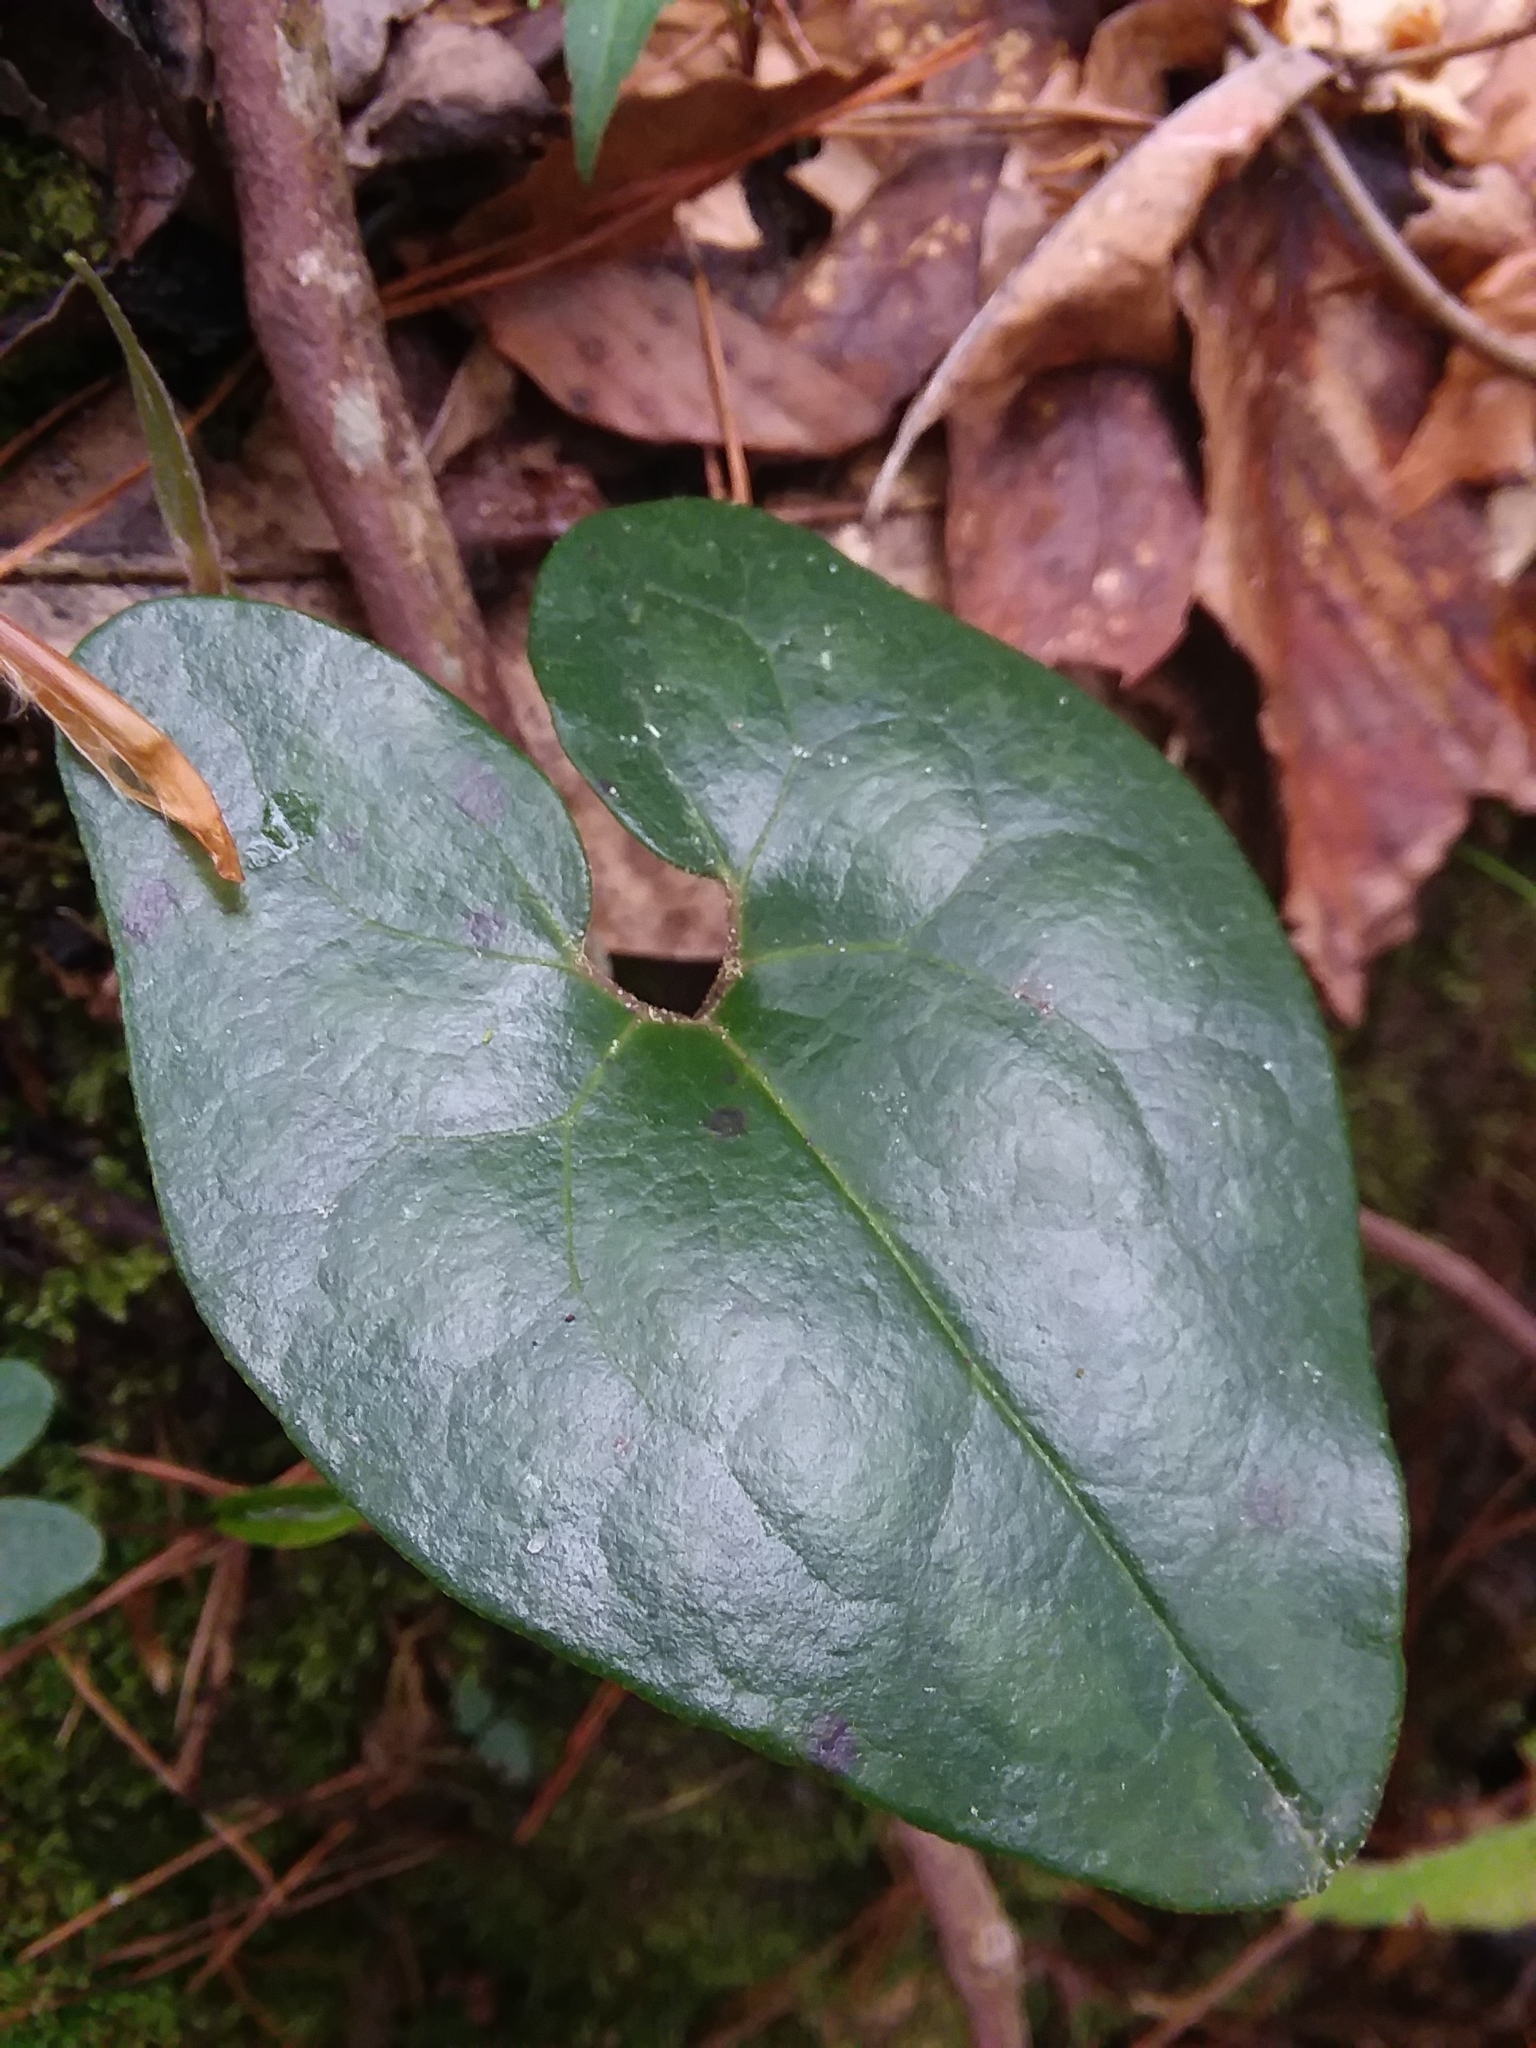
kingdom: Plantae
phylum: Tracheophyta
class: Magnoliopsida
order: Piperales
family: Aristolochiaceae
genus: Hexastylis
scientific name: Hexastylis arifolia
